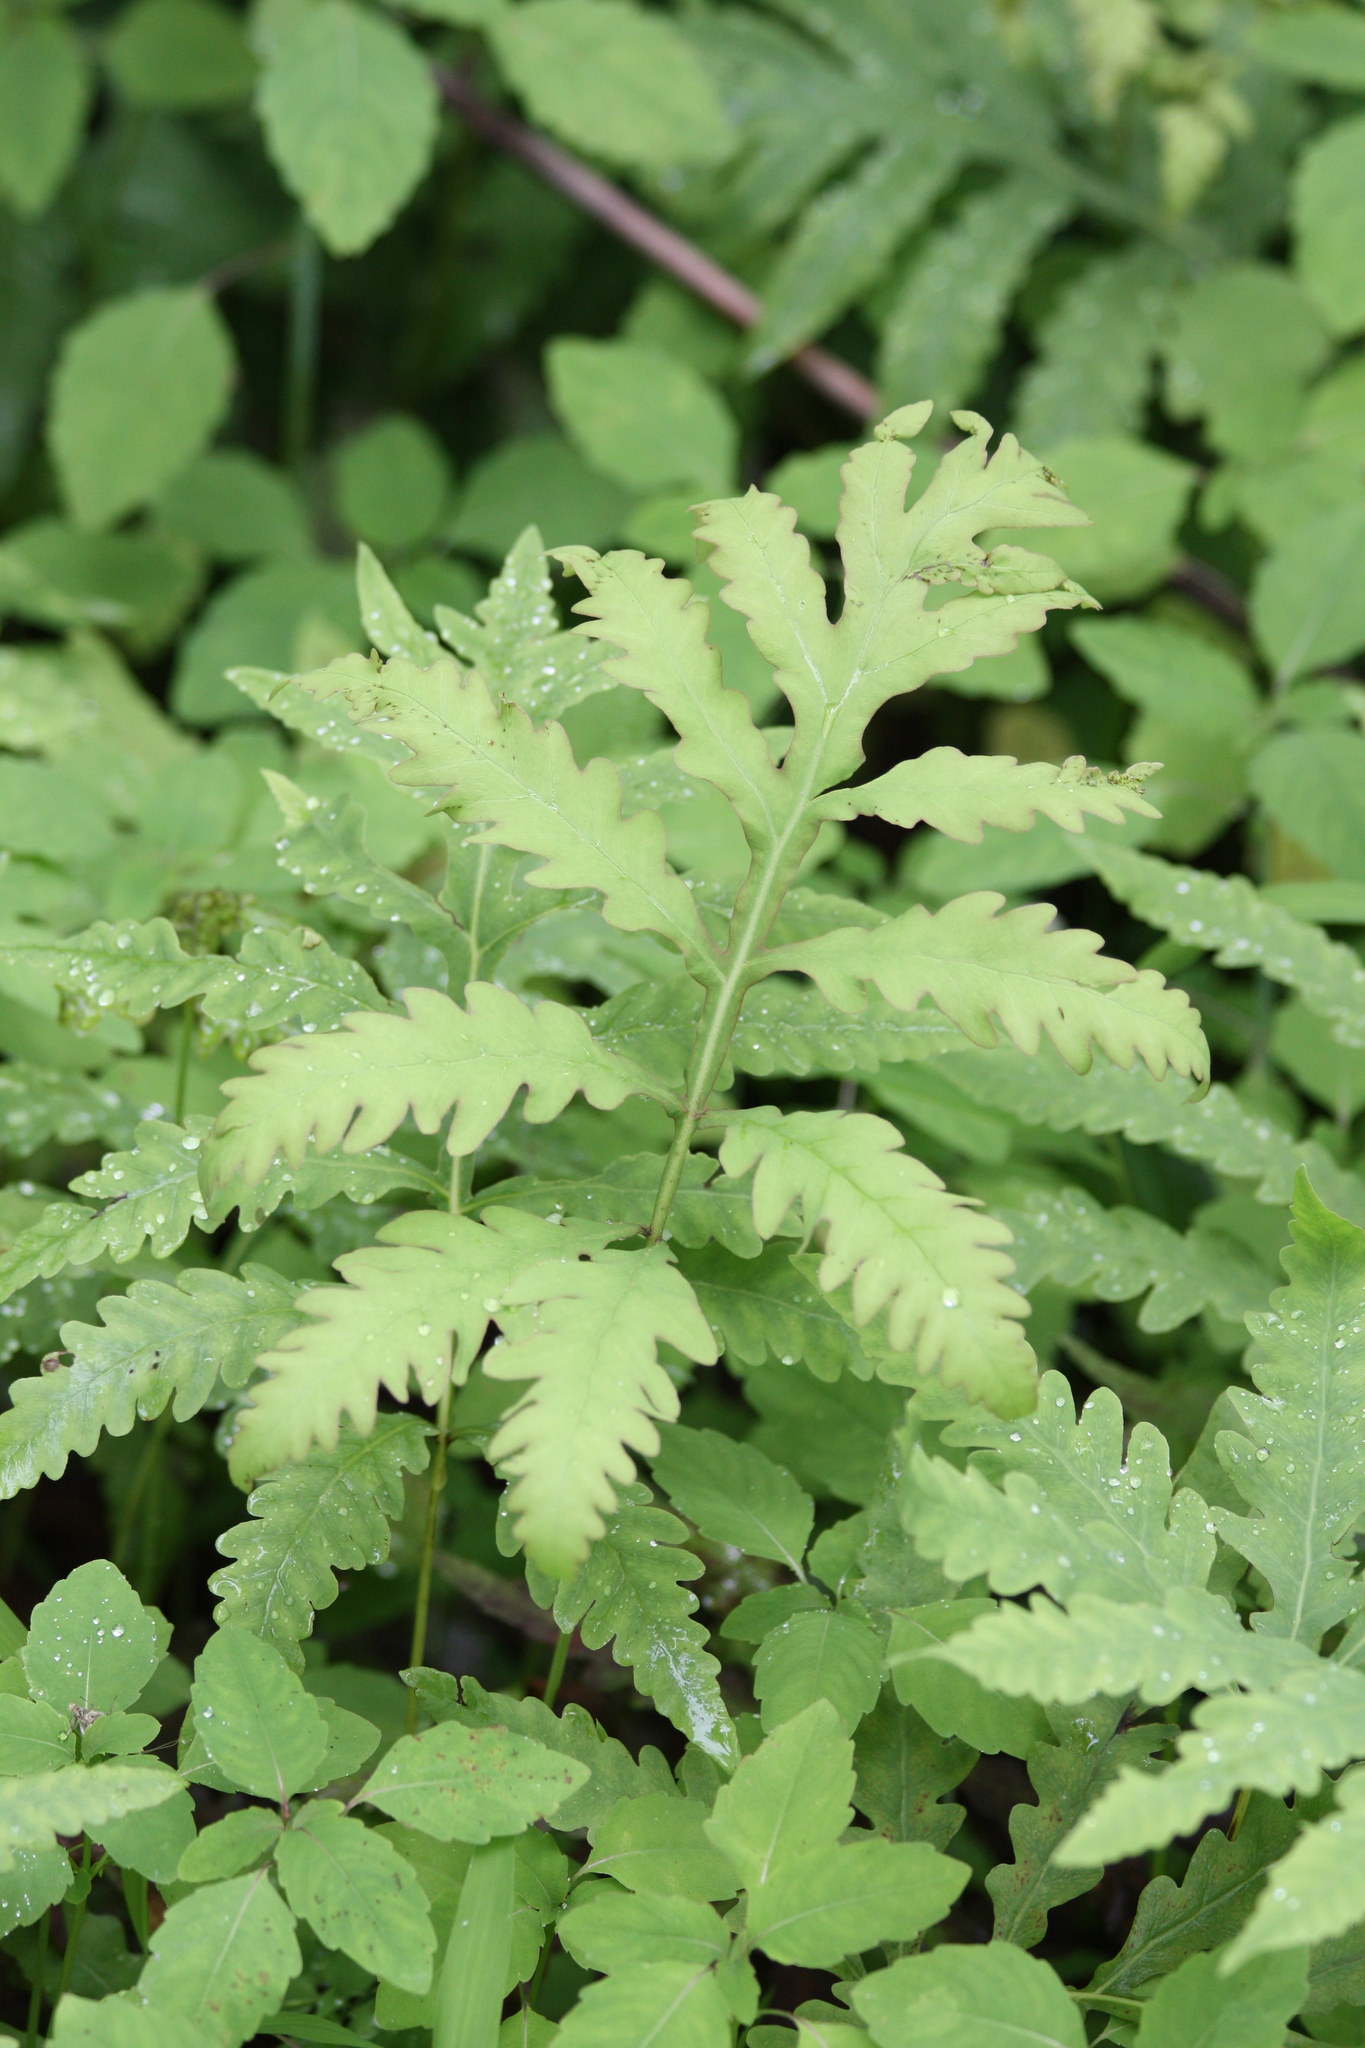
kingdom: Plantae
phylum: Tracheophyta
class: Polypodiopsida
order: Polypodiales
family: Onocleaceae
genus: Onoclea
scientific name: Onoclea sensibilis
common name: Sensitive fern
